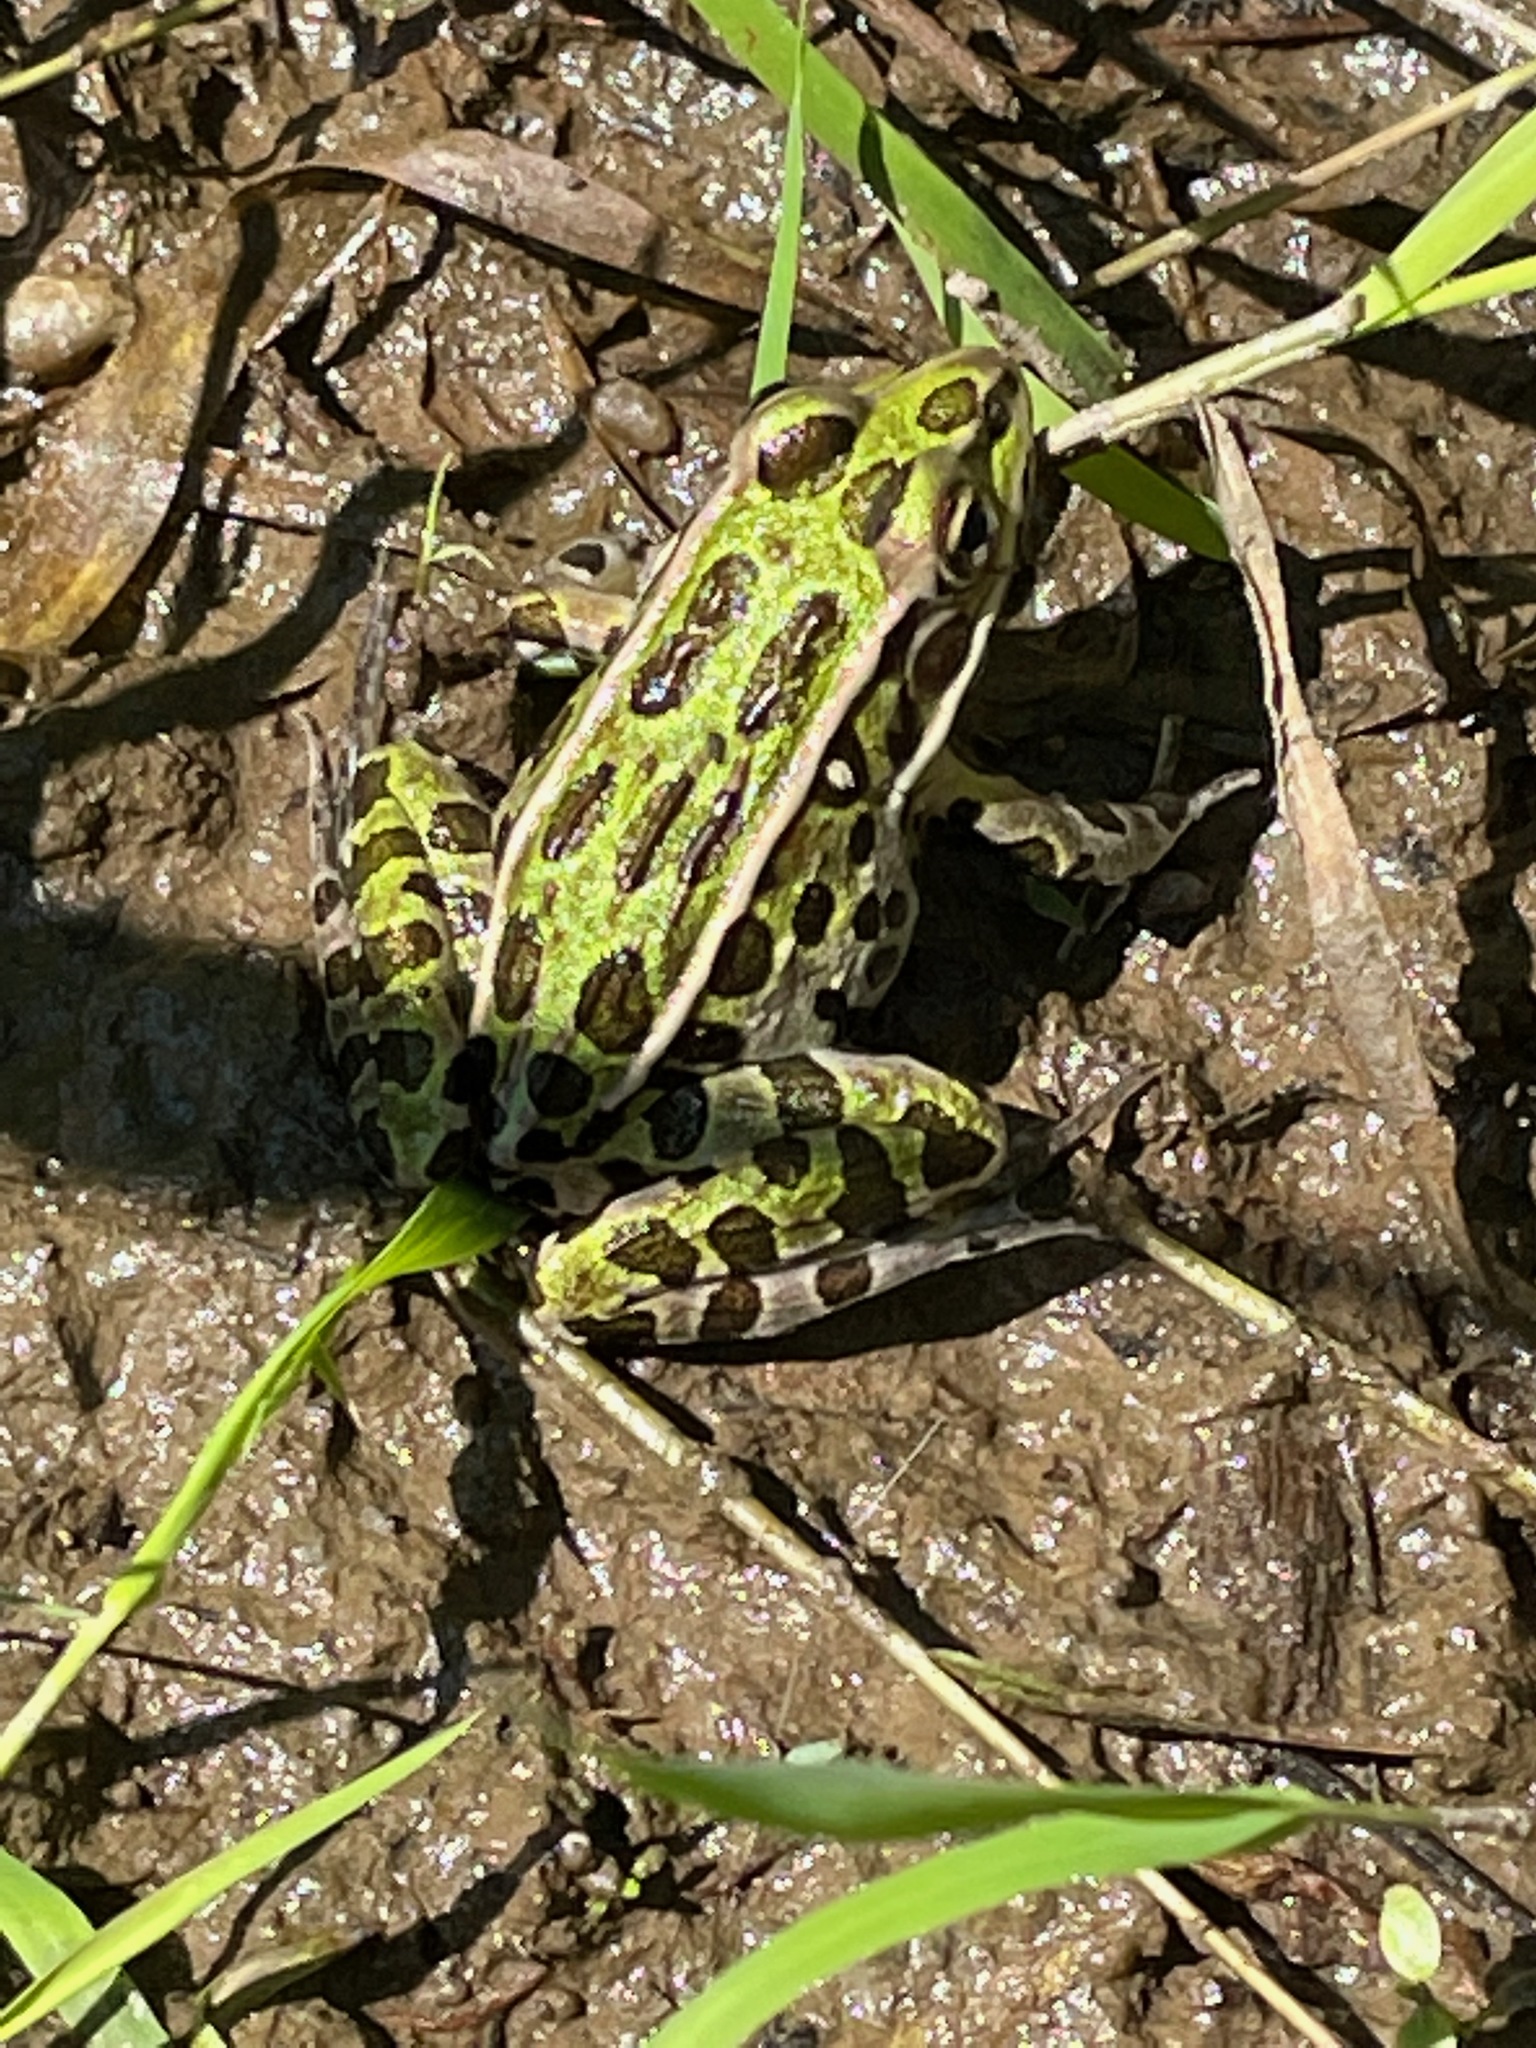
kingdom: Animalia
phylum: Chordata
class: Amphibia
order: Anura
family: Ranidae
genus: Lithobates
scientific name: Lithobates pipiens
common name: Northern leopard frog
